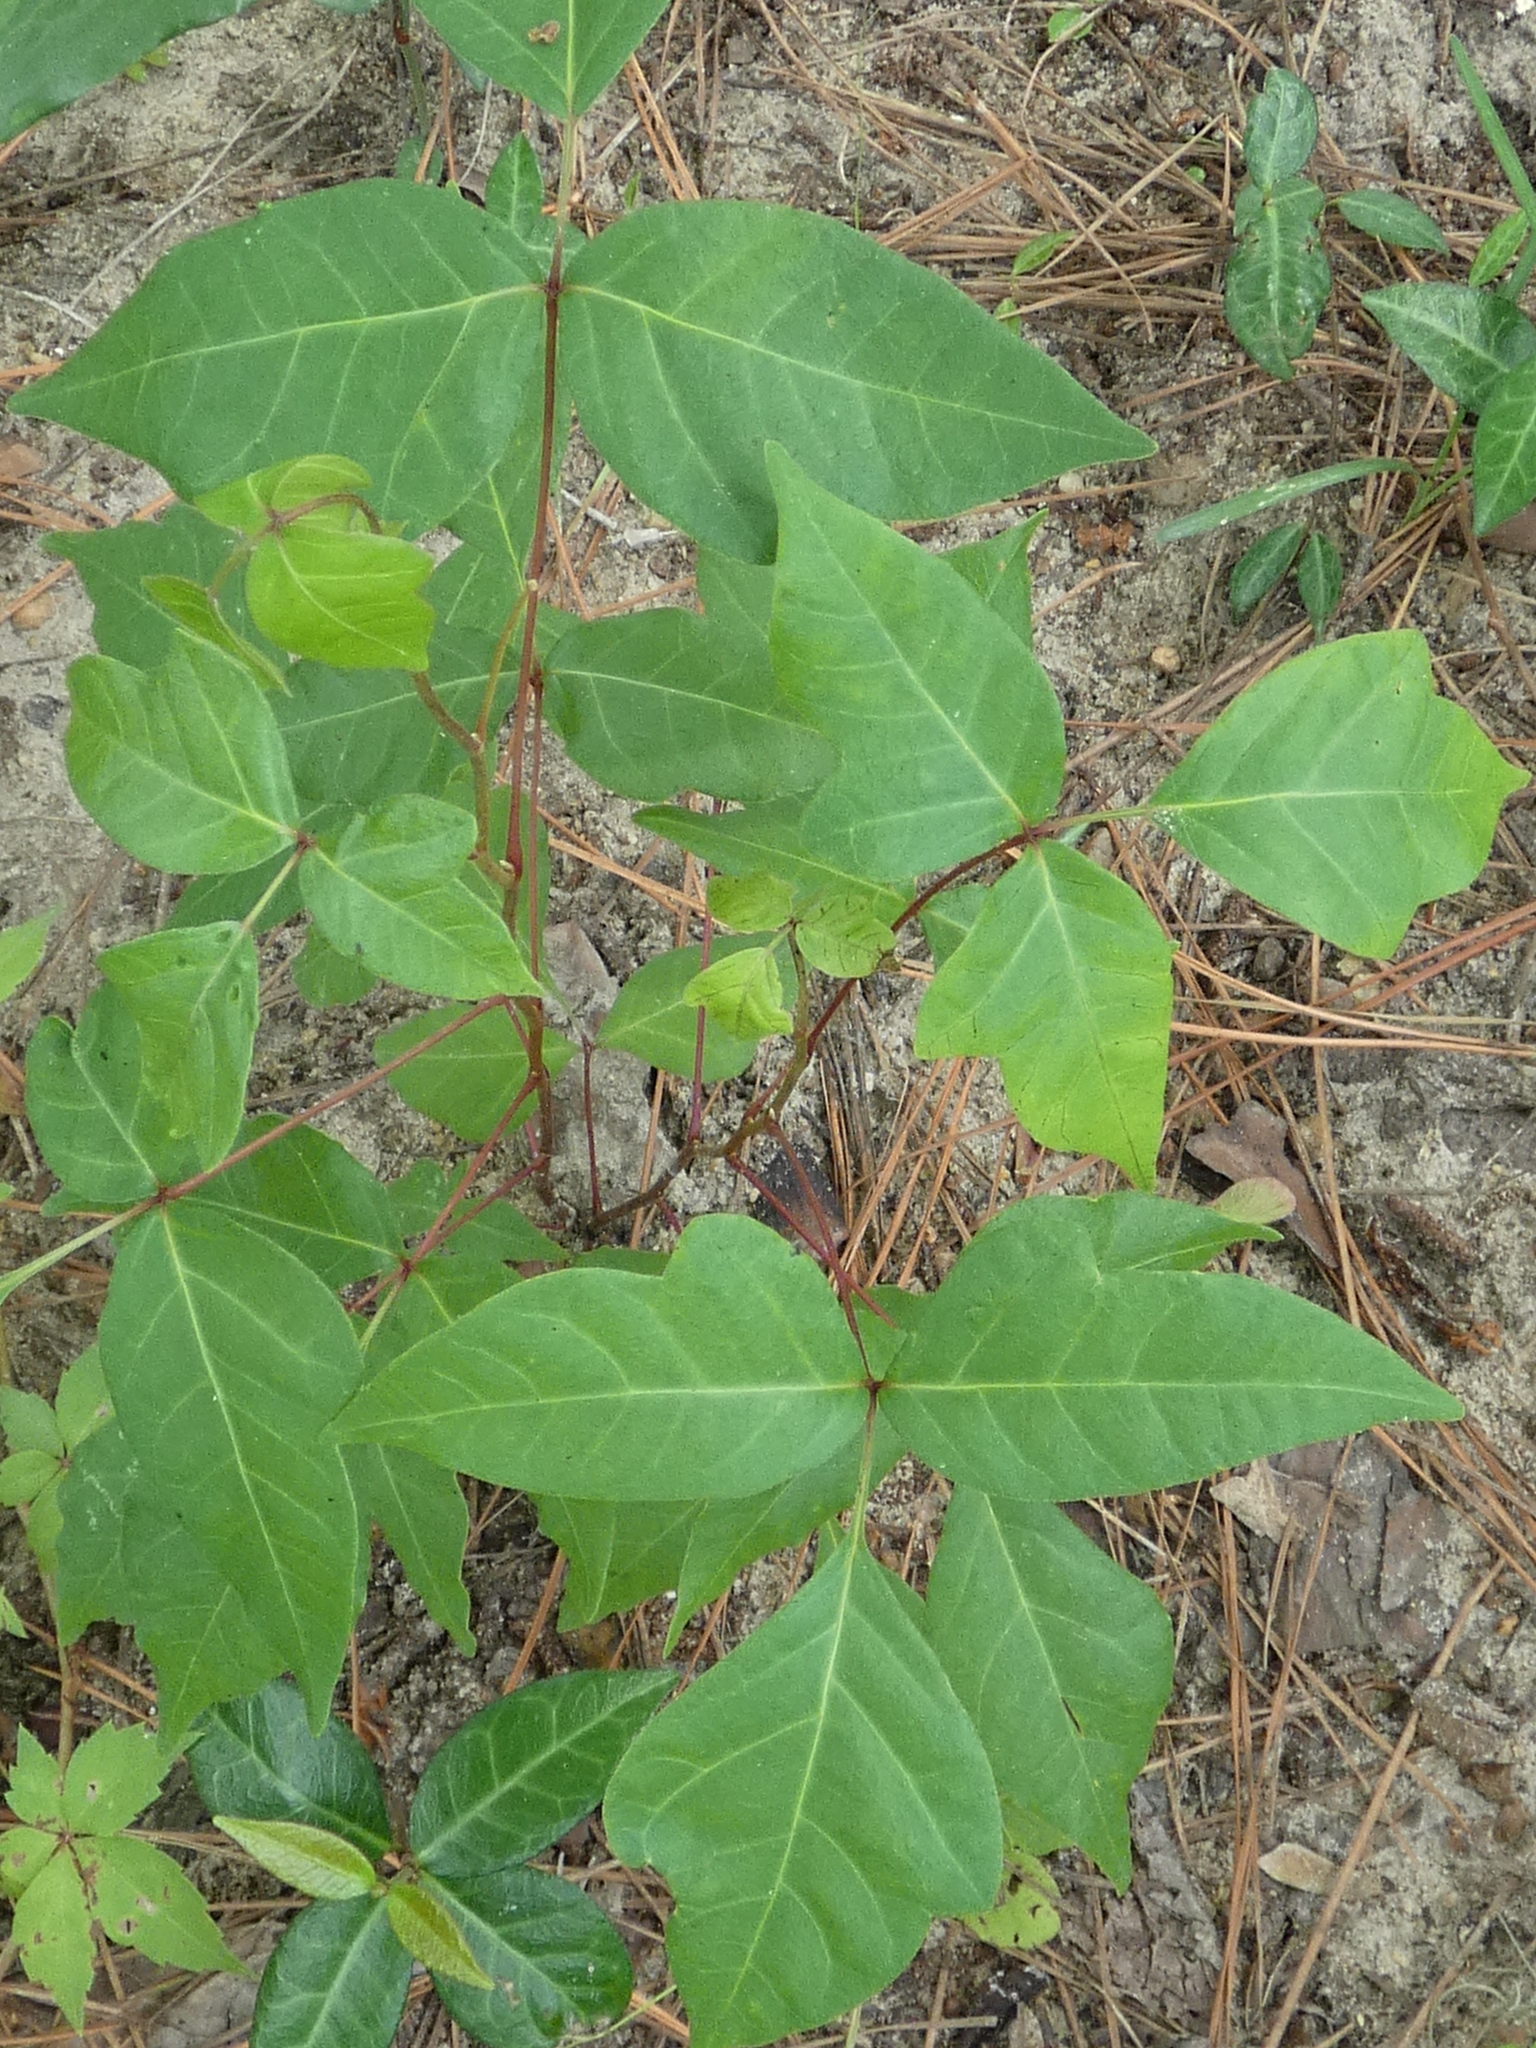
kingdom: Plantae
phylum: Tracheophyta
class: Magnoliopsida
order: Sapindales
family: Anacardiaceae
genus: Toxicodendron
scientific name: Toxicodendron radicans
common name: Poison ivy
